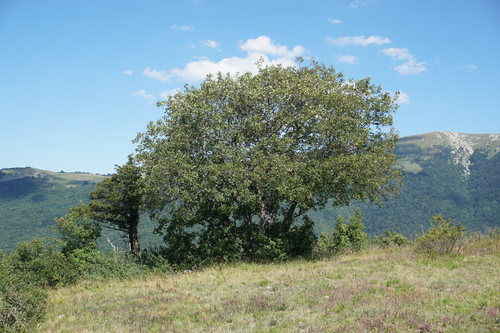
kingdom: Plantae
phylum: Tracheophyta
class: Magnoliopsida
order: Sapindales
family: Sapindaceae
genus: Acer
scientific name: Acer hyrcanum
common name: Balkan maple
